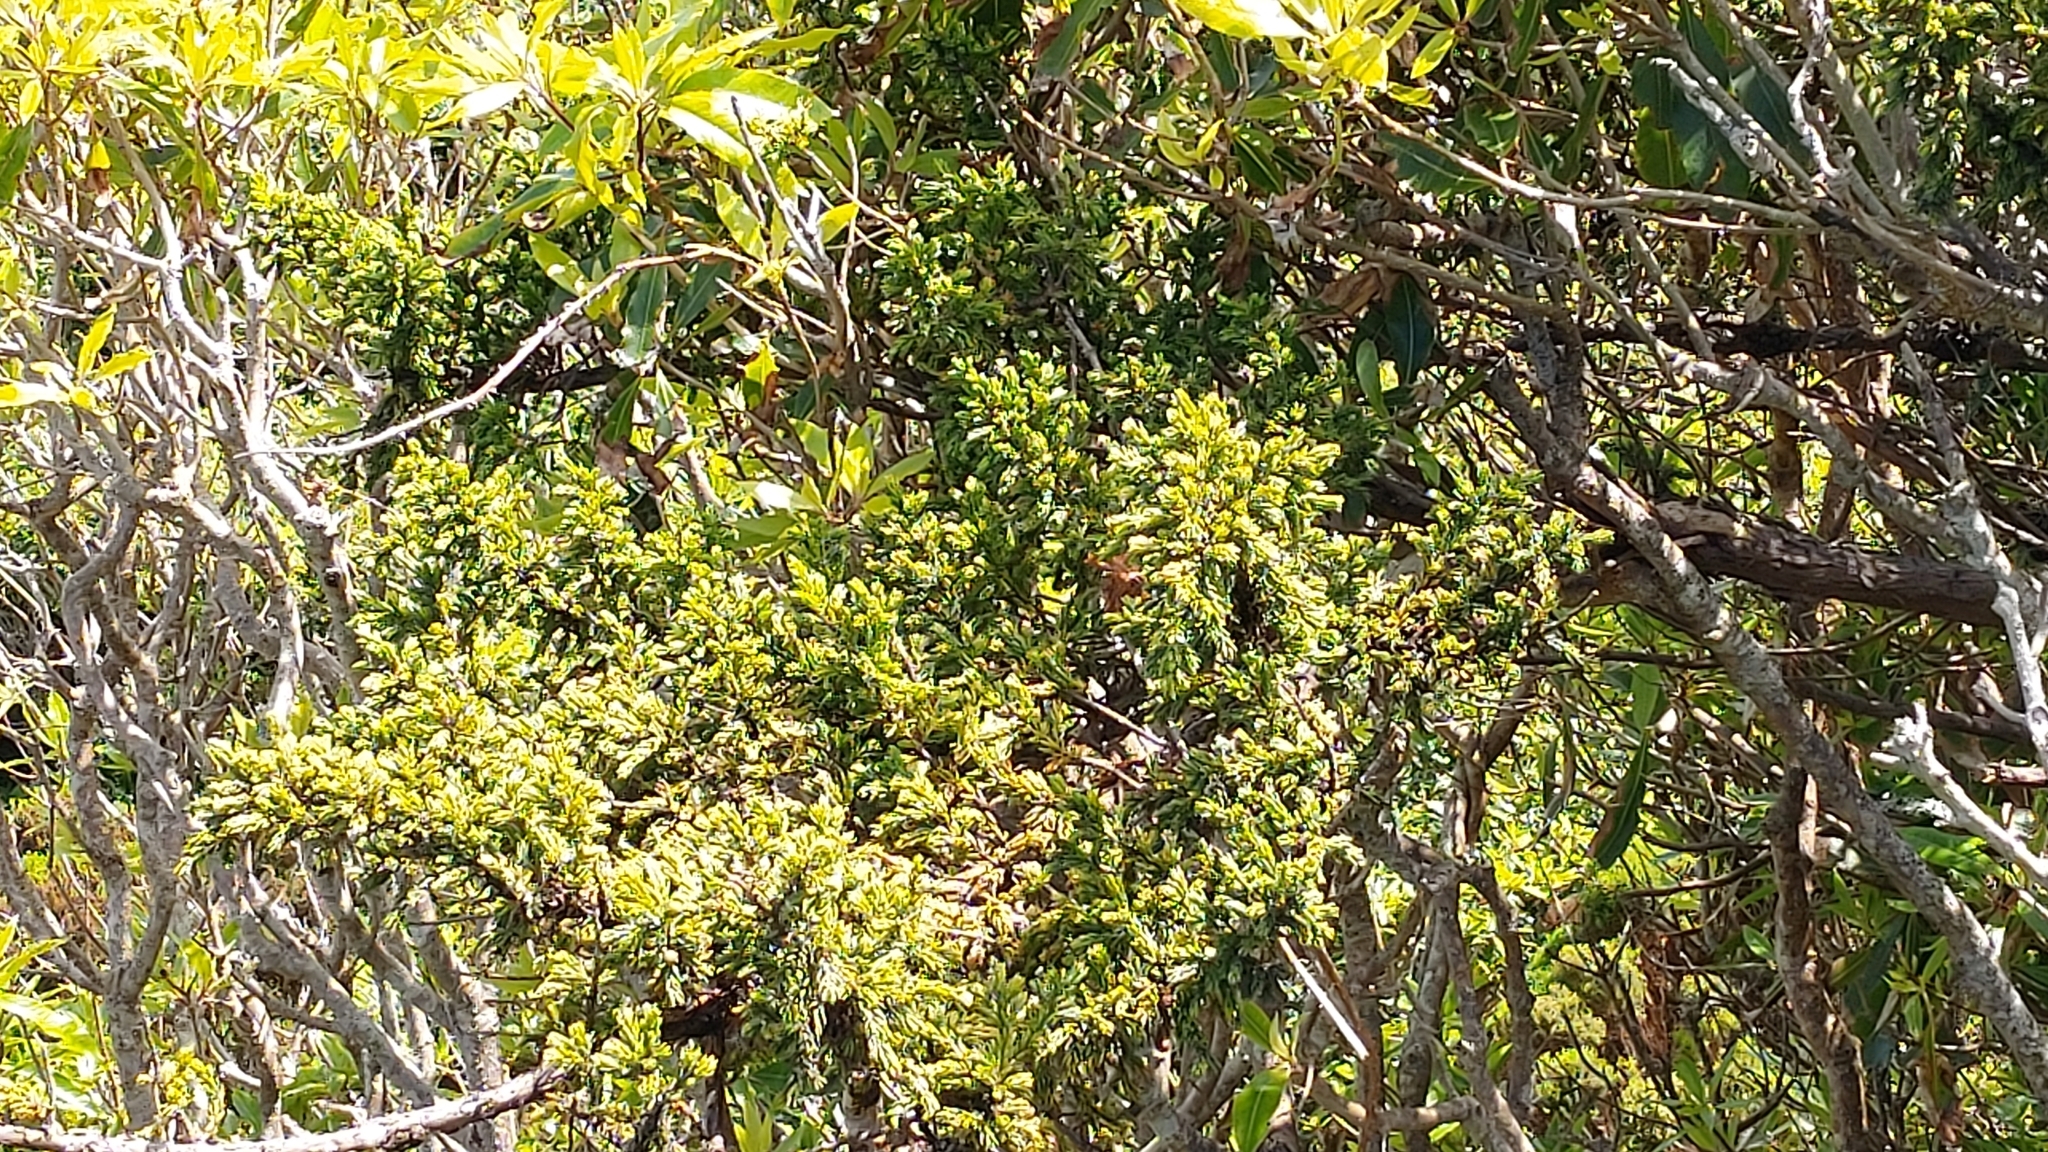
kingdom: Plantae
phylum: Tracheophyta
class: Pinopsida
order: Pinales
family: Cupressaceae
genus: Juniperus
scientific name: Juniperus brevifolia
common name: Azores juniper
